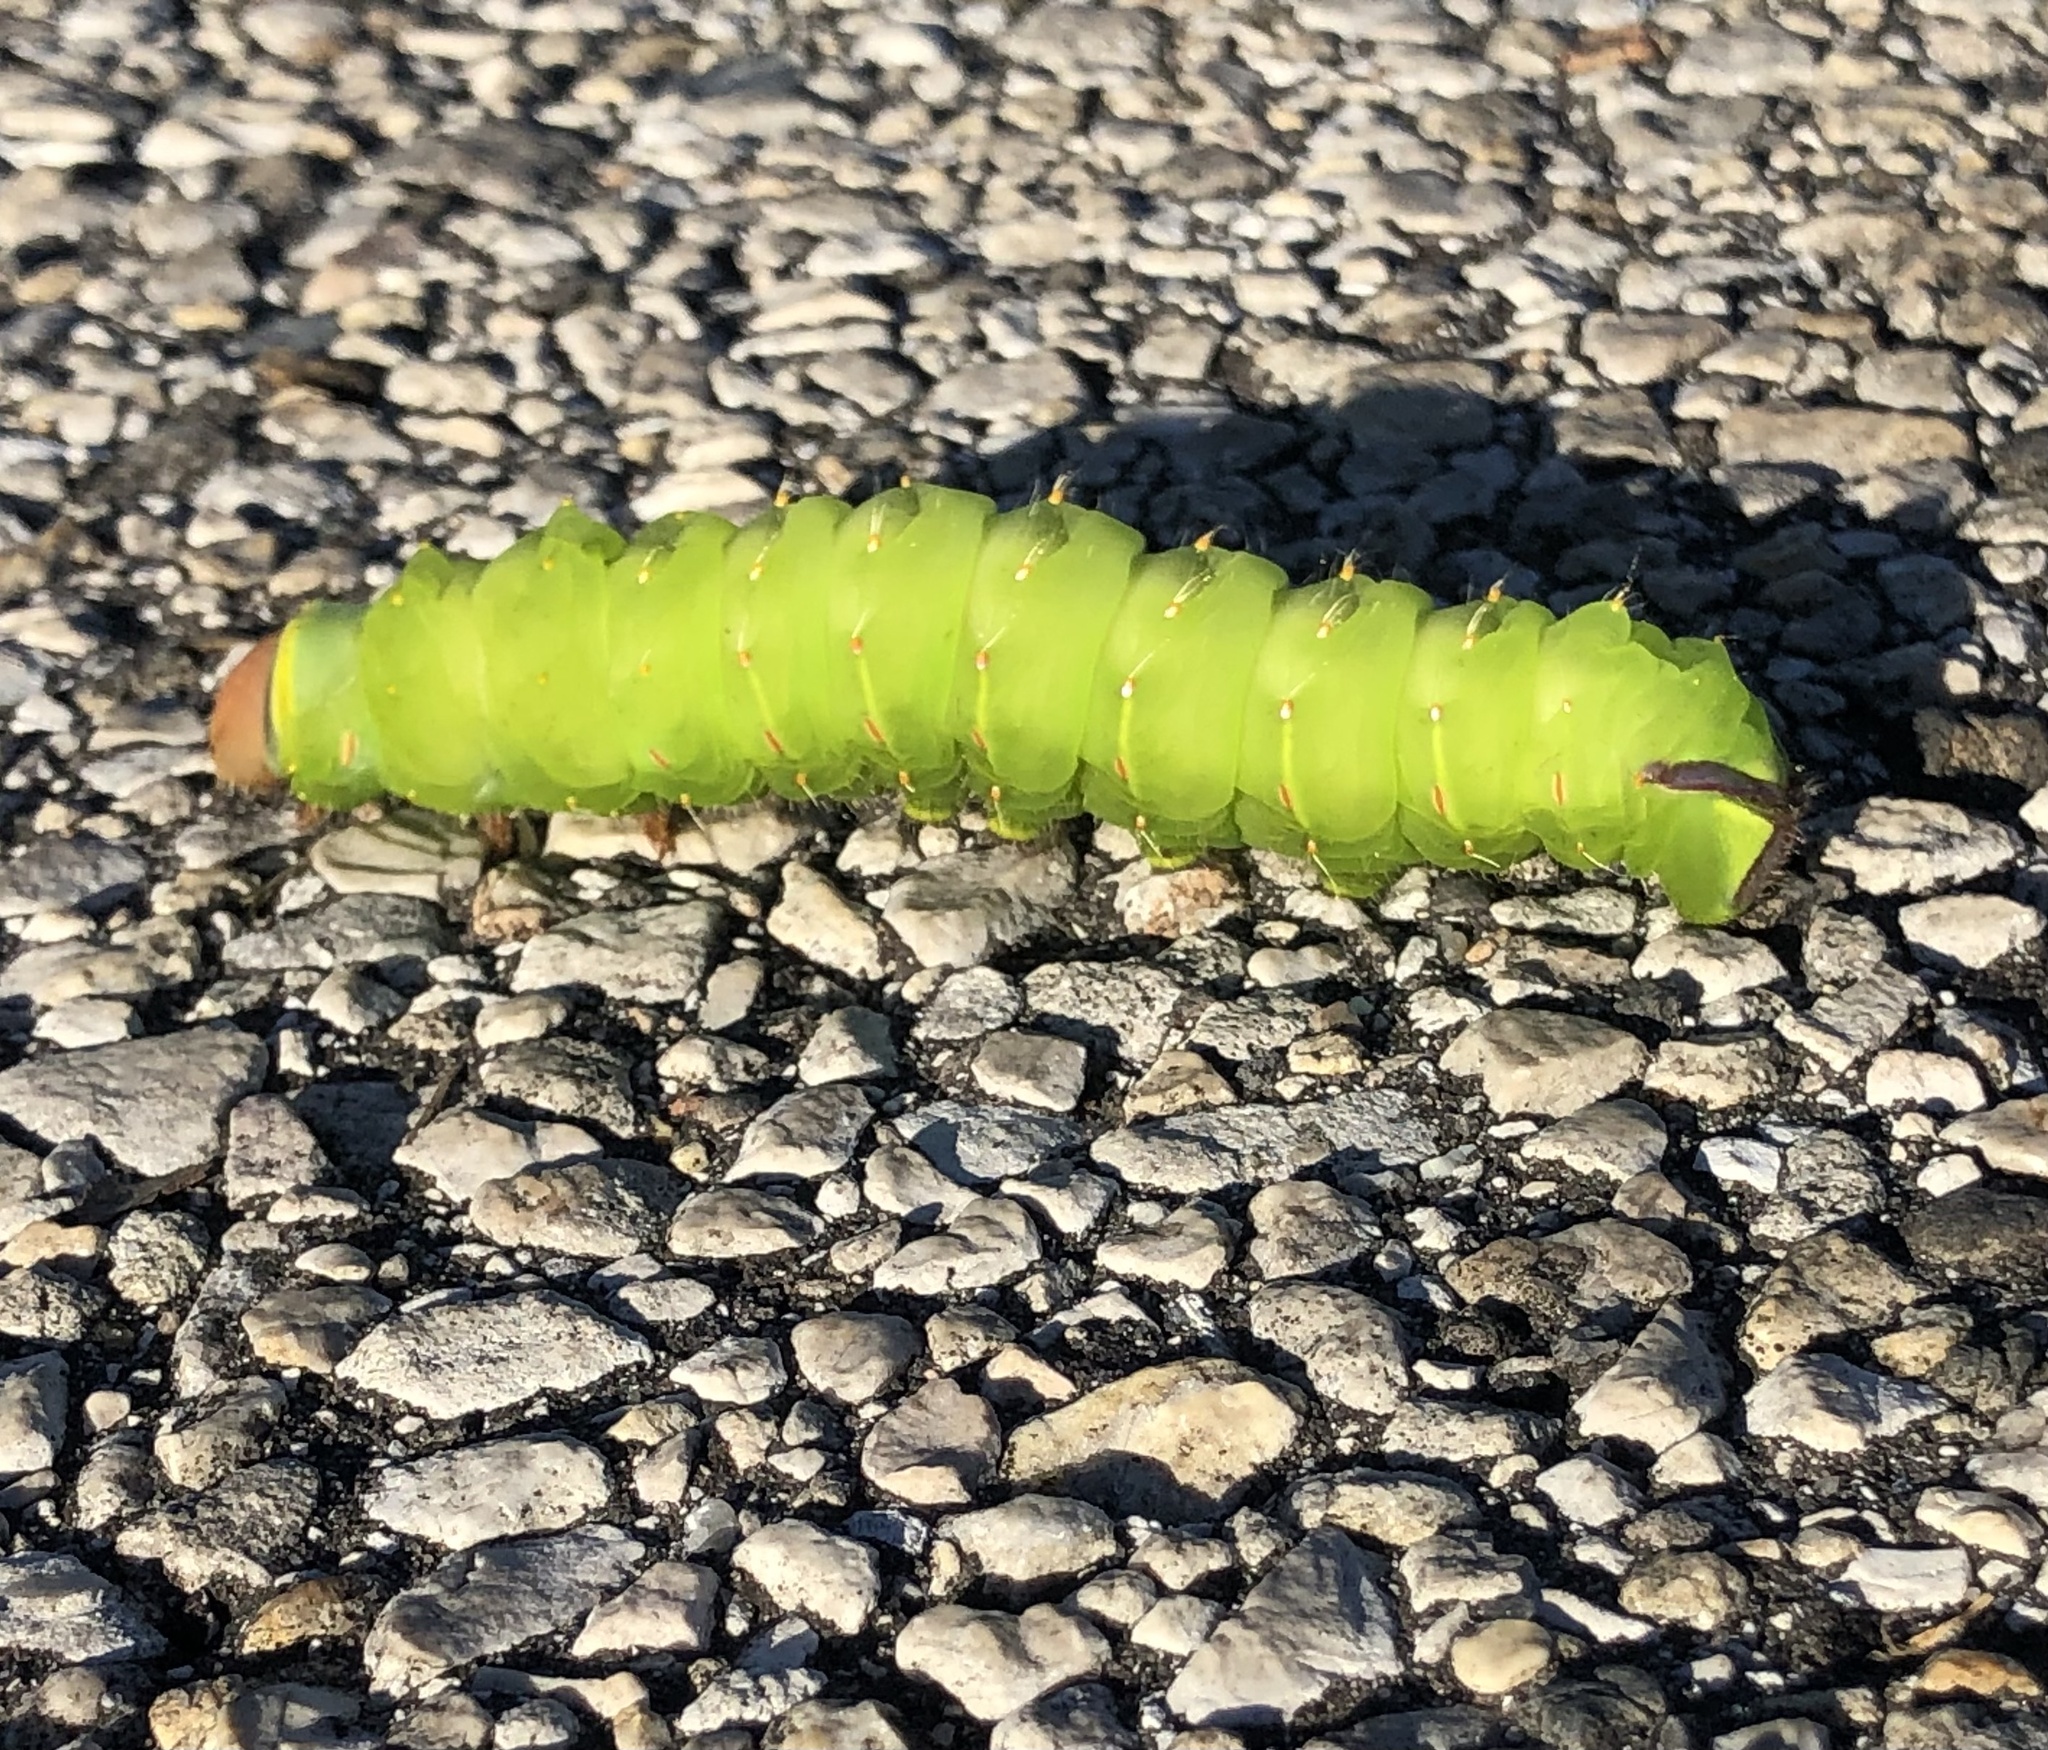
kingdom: Animalia
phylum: Arthropoda
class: Insecta
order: Lepidoptera
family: Saturniidae
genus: Antheraea
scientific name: Antheraea polyphemus
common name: Polyphemus moth
